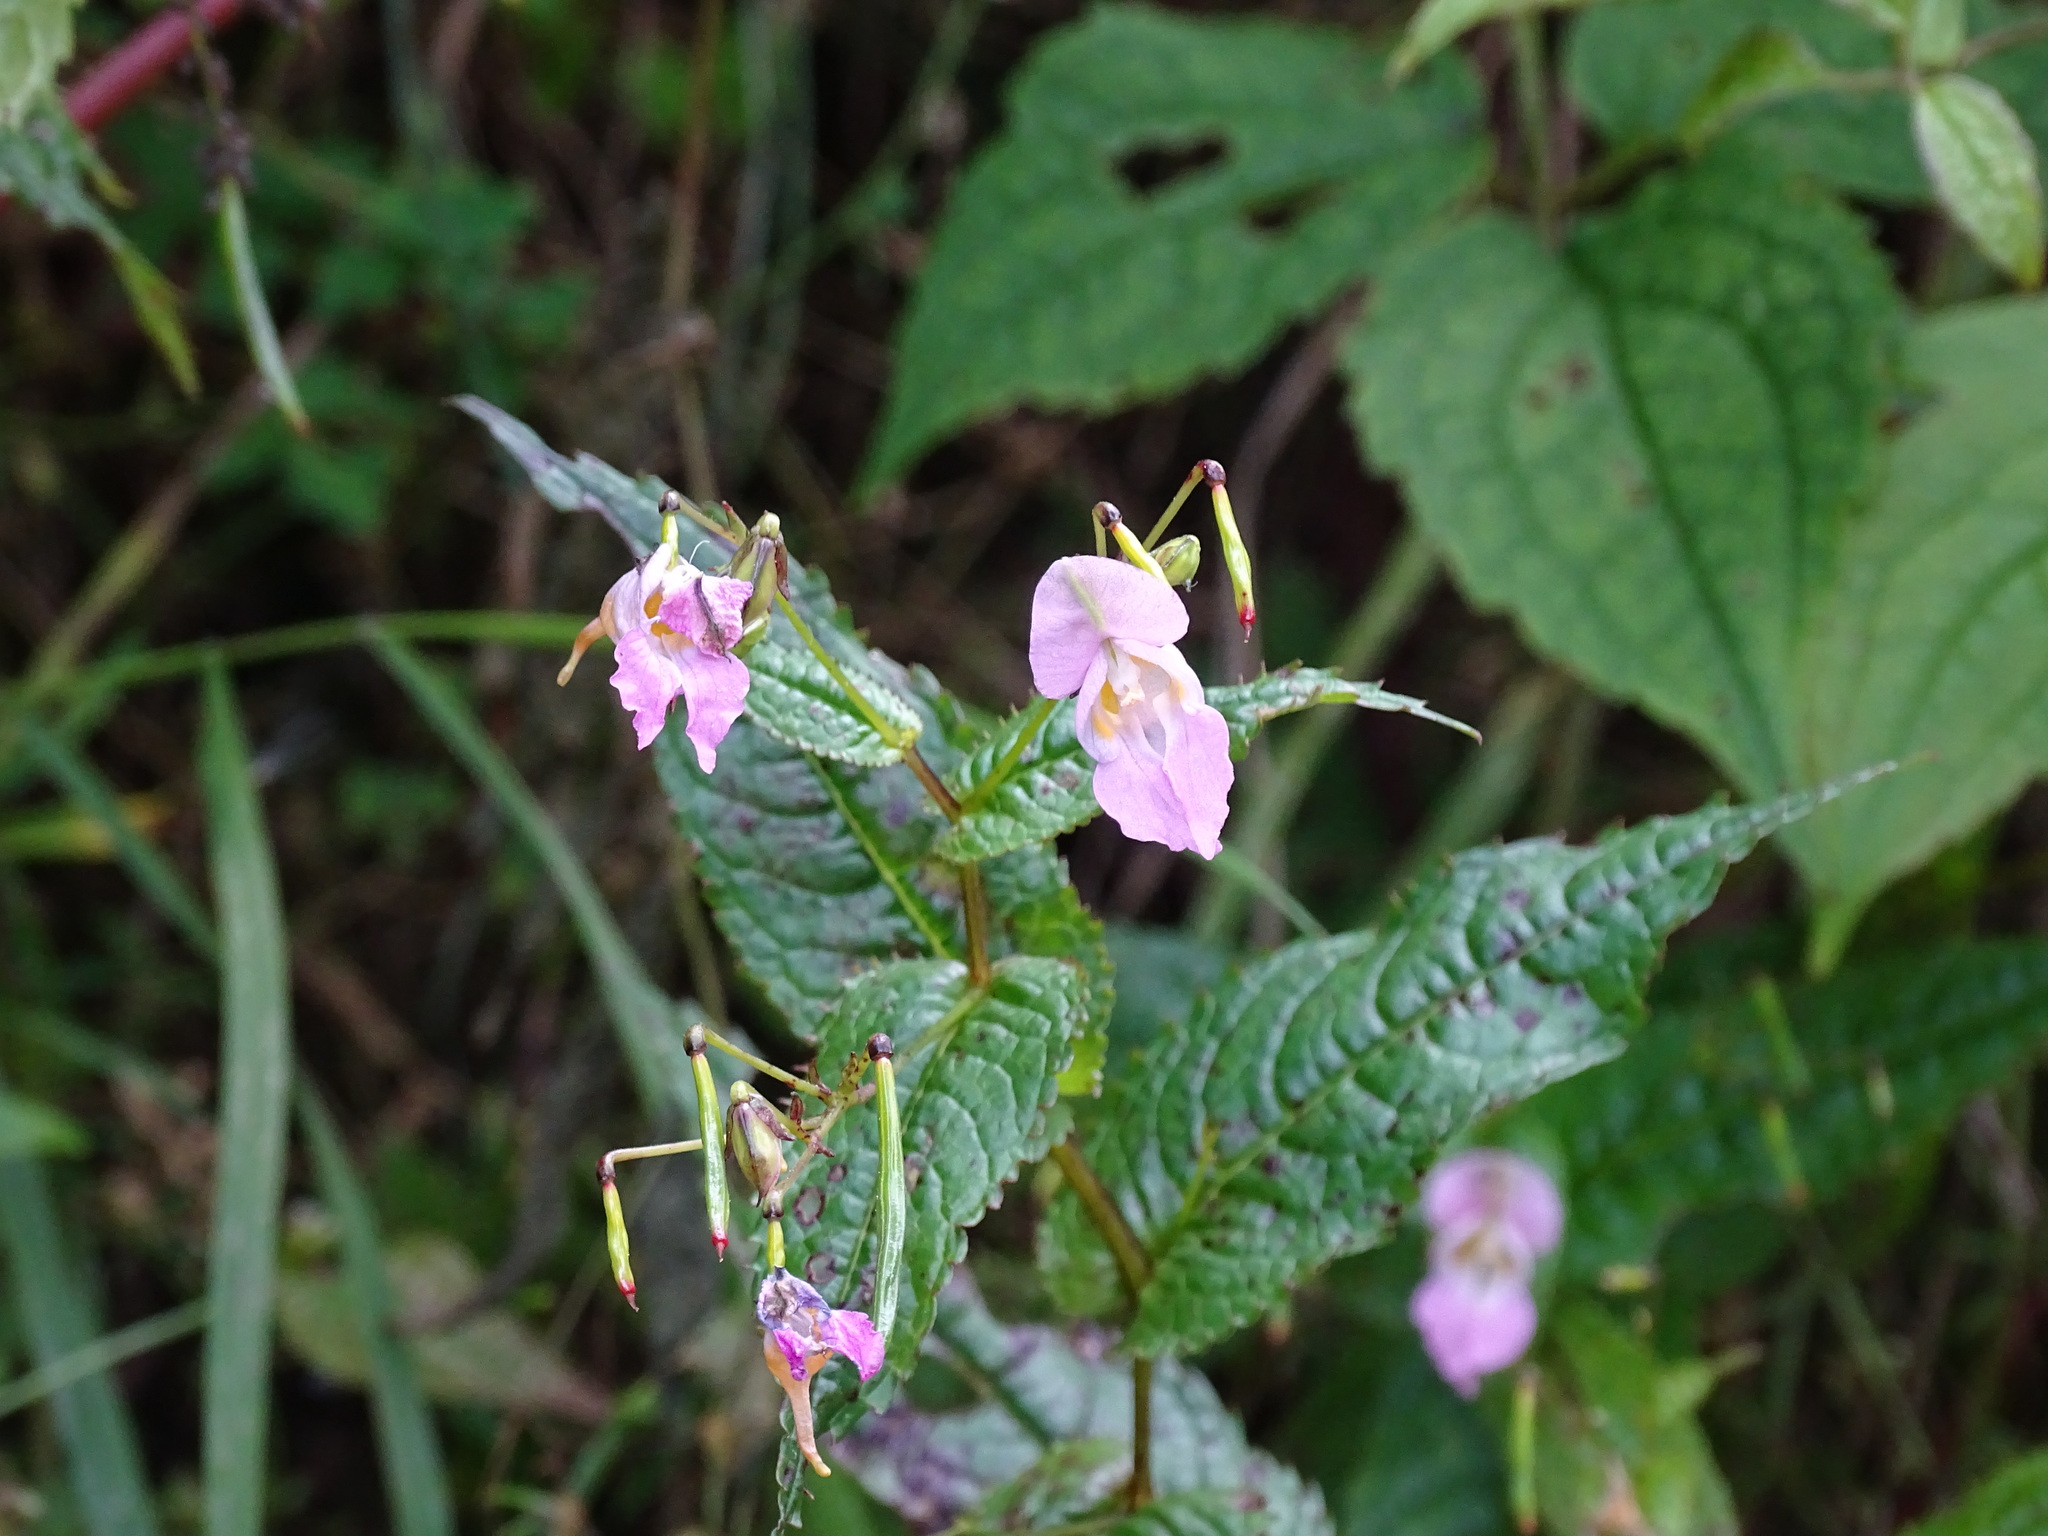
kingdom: Plantae
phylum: Tracheophyta
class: Magnoliopsida
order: Ericales
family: Balsaminaceae
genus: Impatiens
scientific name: Impatiens chungtienensis
